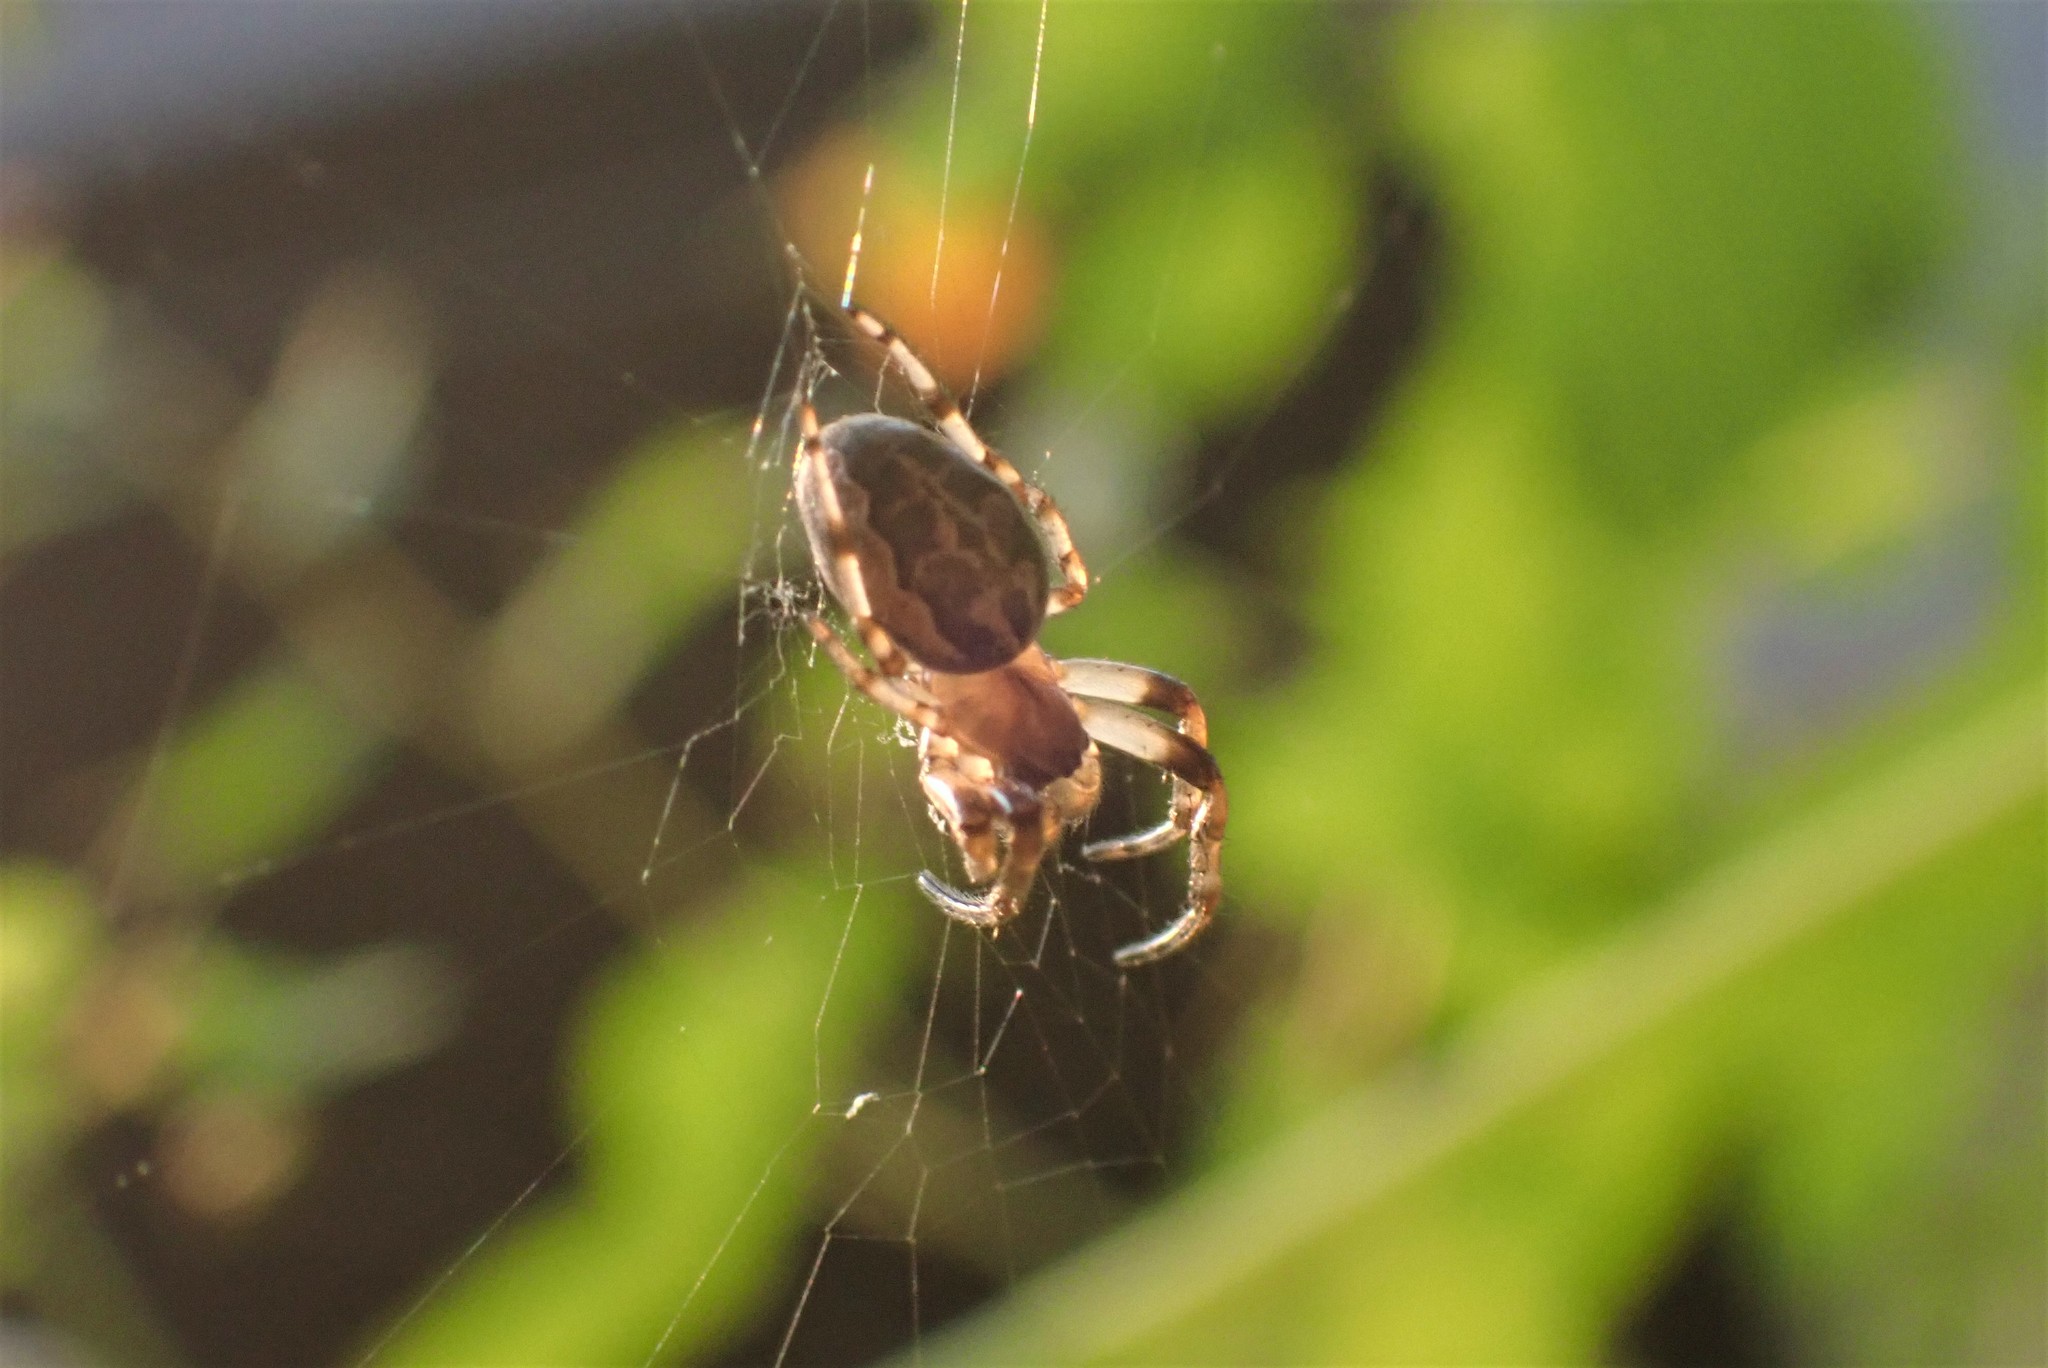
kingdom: Animalia
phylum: Arthropoda
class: Arachnida
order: Araneae
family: Araneidae
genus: Larinioides
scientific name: Larinioides cornutus
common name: Furrow orbweaver
